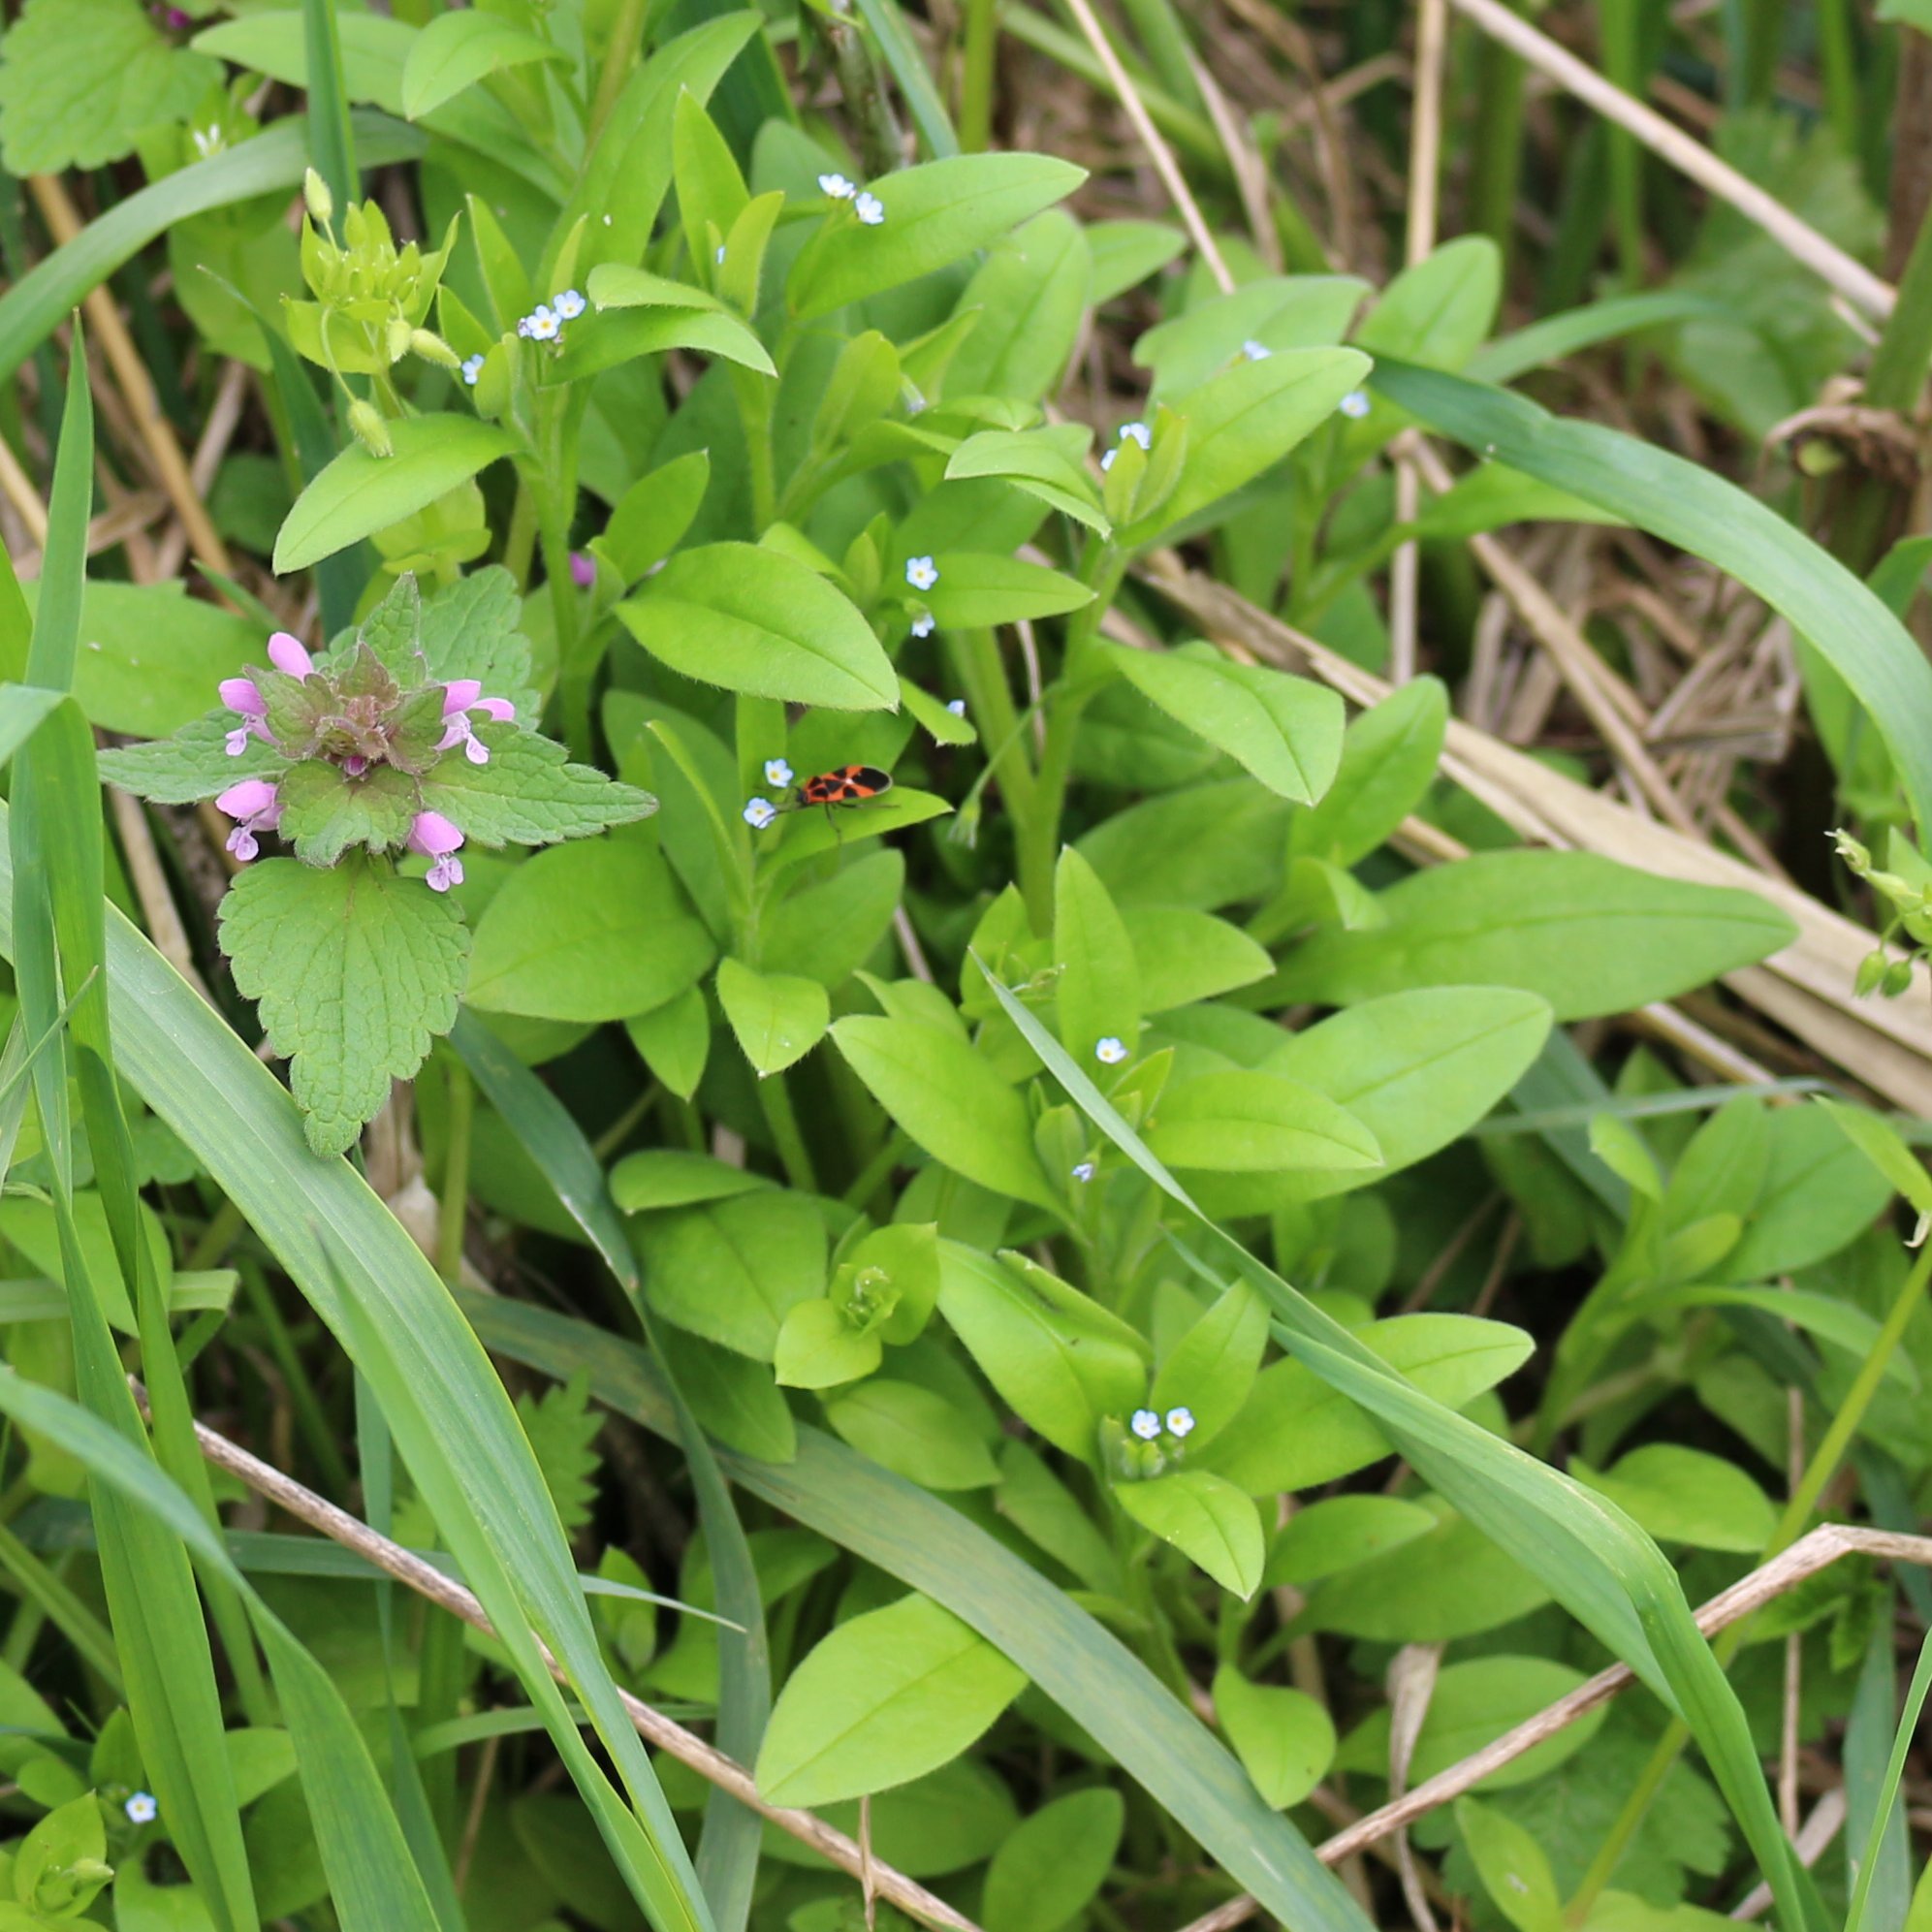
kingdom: Plantae
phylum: Tracheophyta
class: Magnoliopsida
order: Boraginales
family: Boraginaceae
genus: Myosotis
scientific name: Myosotis sparsiflora
